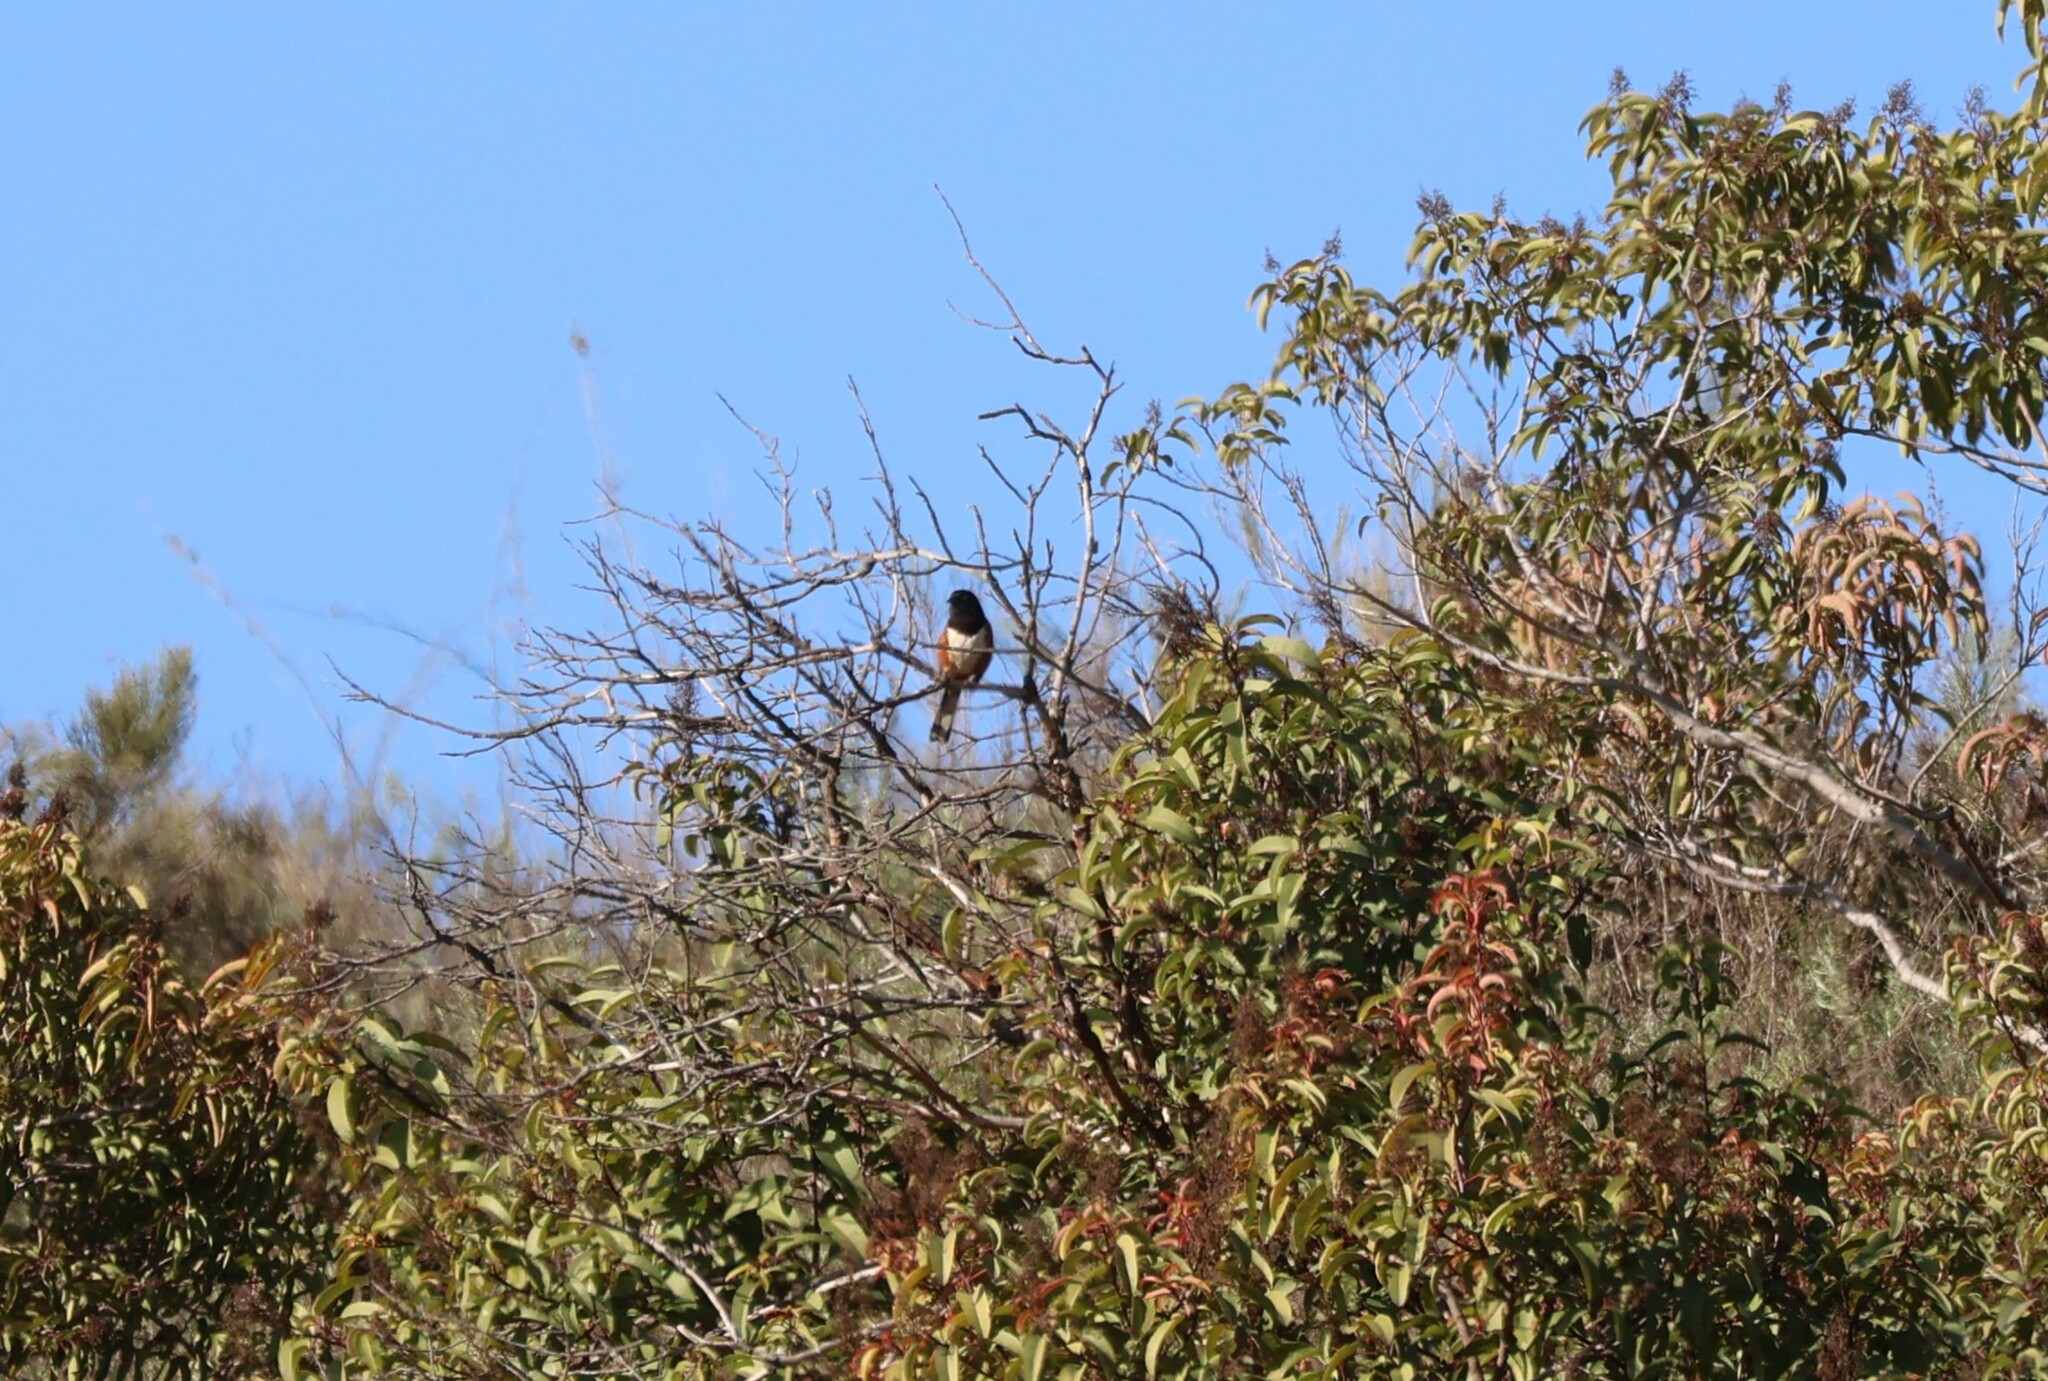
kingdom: Animalia
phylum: Chordata
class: Aves
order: Passeriformes
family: Passerellidae
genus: Pipilo
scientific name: Pipilo maculatus
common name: Spotted towhee
